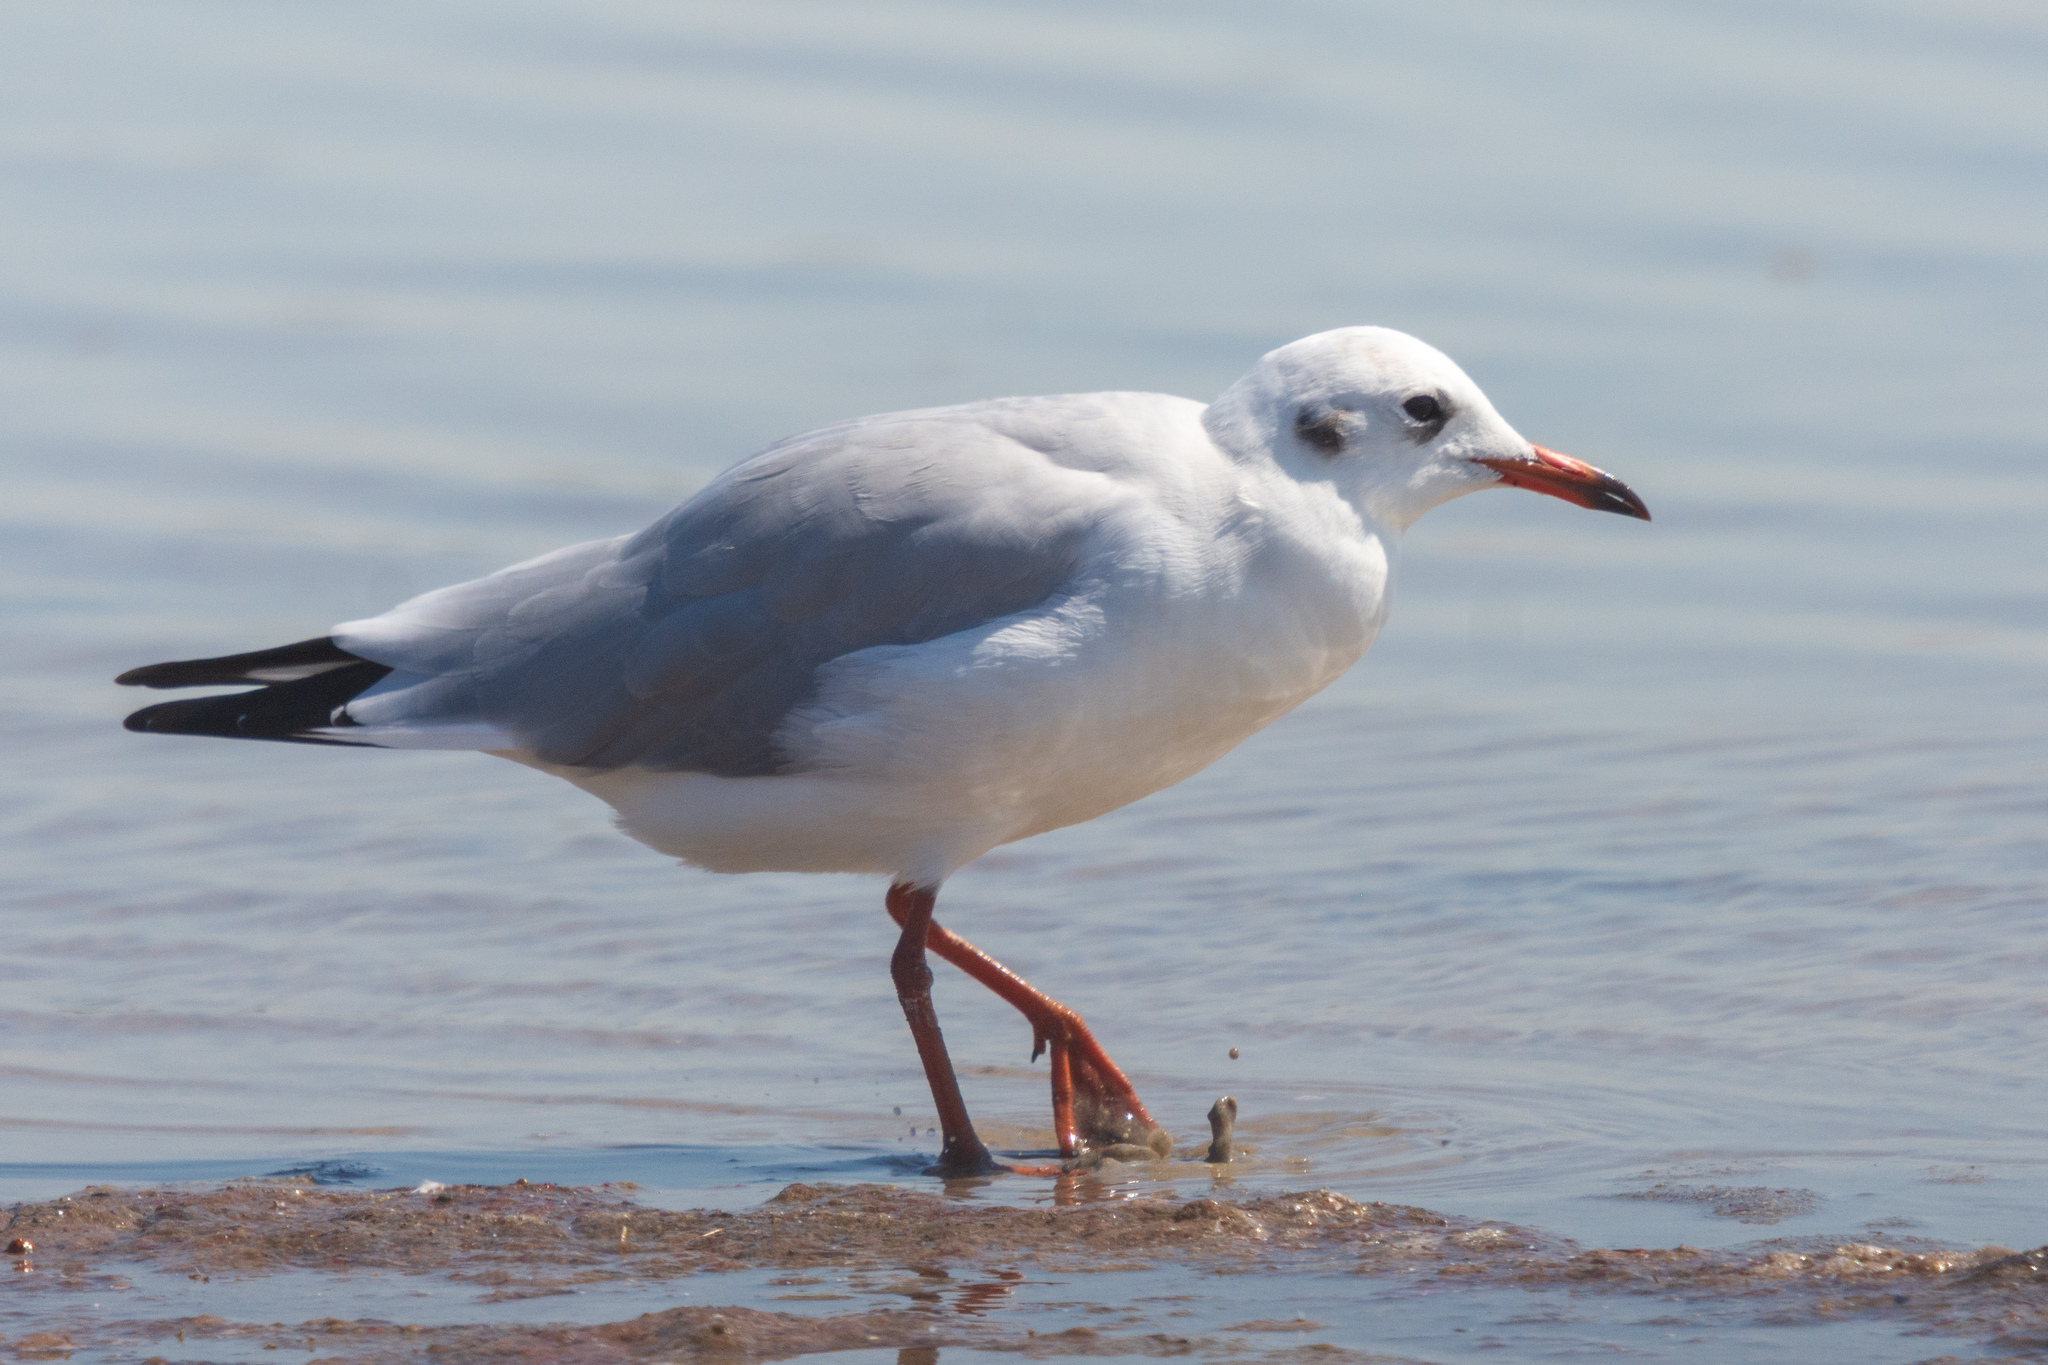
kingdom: Animalia
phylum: Chordata
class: Aves
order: Charadriiformes
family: Laridae
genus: Chroicocephalus
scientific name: Chroicocephalus ridibundus
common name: Black-headed gull
